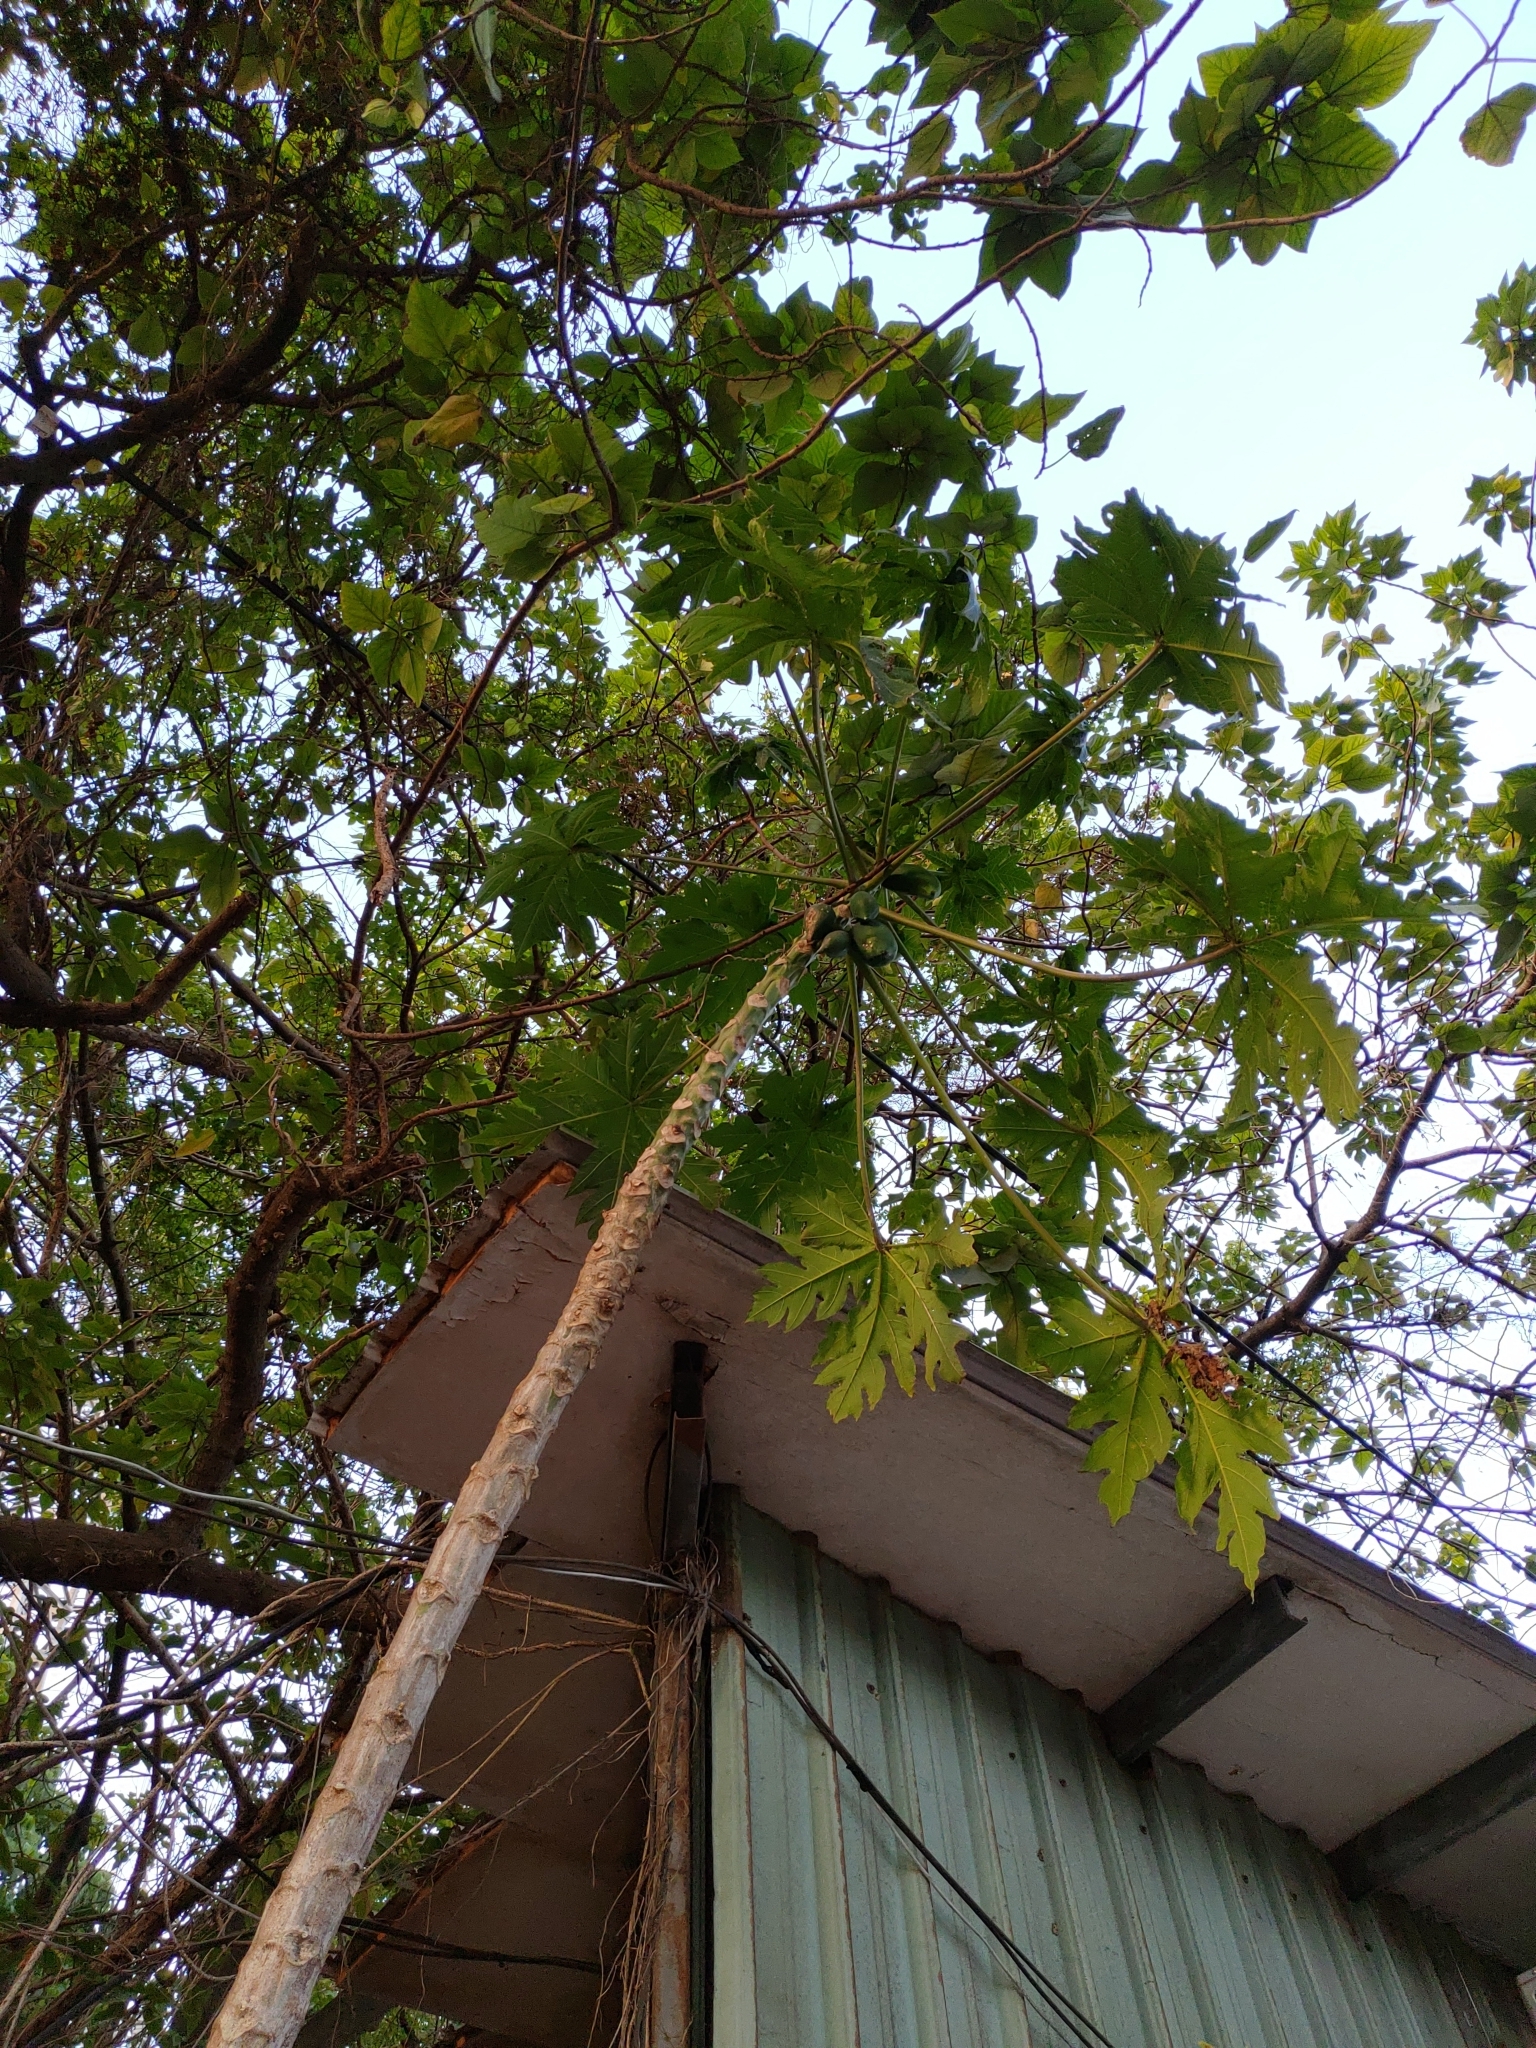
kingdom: Plantae
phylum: Tracheophyta
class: Magnoliopsida
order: Brassicales
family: Caricaceae
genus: Carica
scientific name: Carica papaya
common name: Papaya
